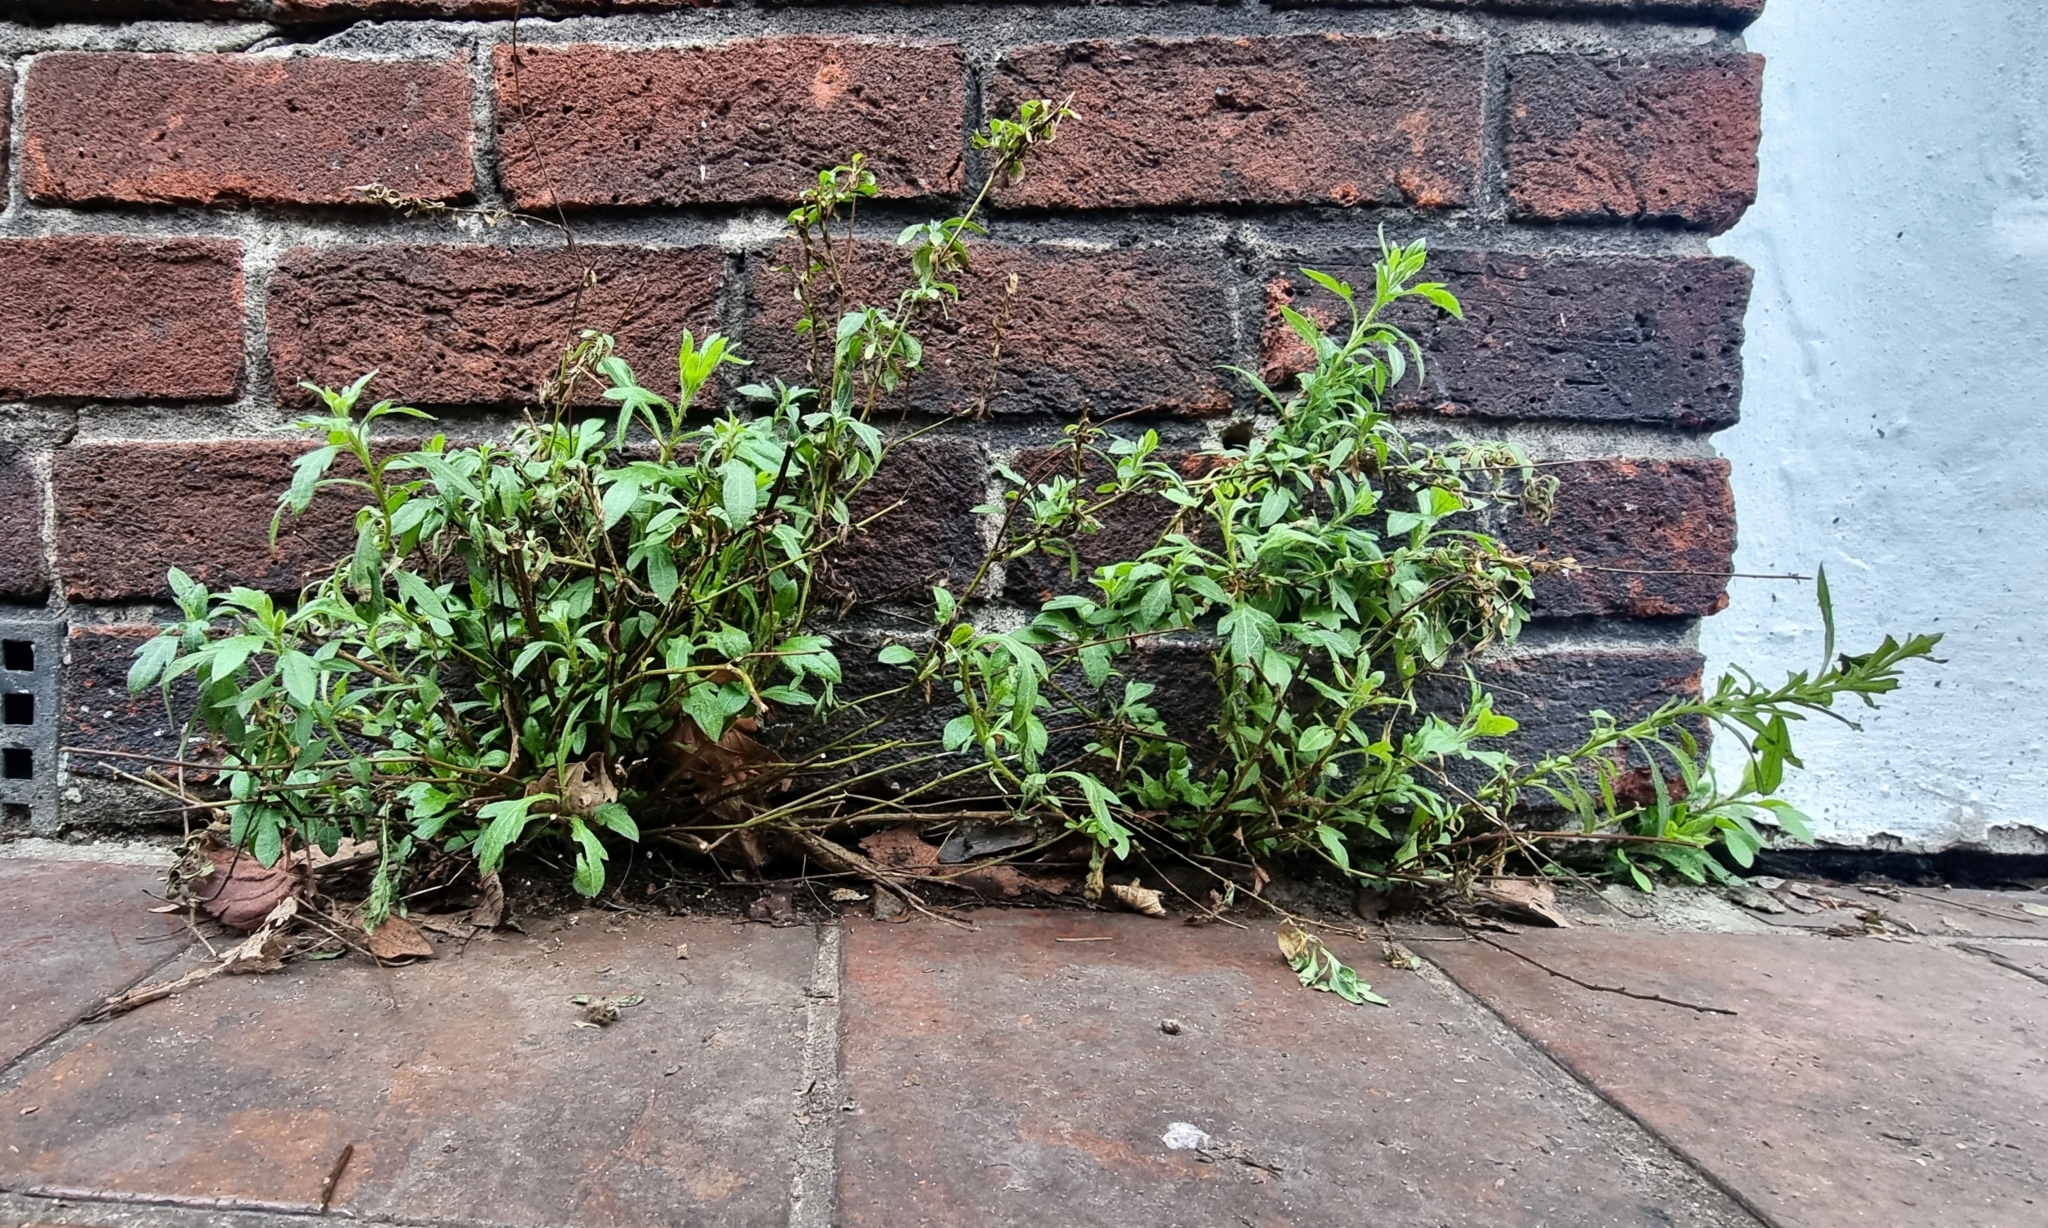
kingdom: Plantae
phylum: Tracheophyta
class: Magnoliopsida
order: Asterales
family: Asteraceae
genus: Erigeron
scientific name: Erigeron karvinskianus
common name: Mexican fleabane
